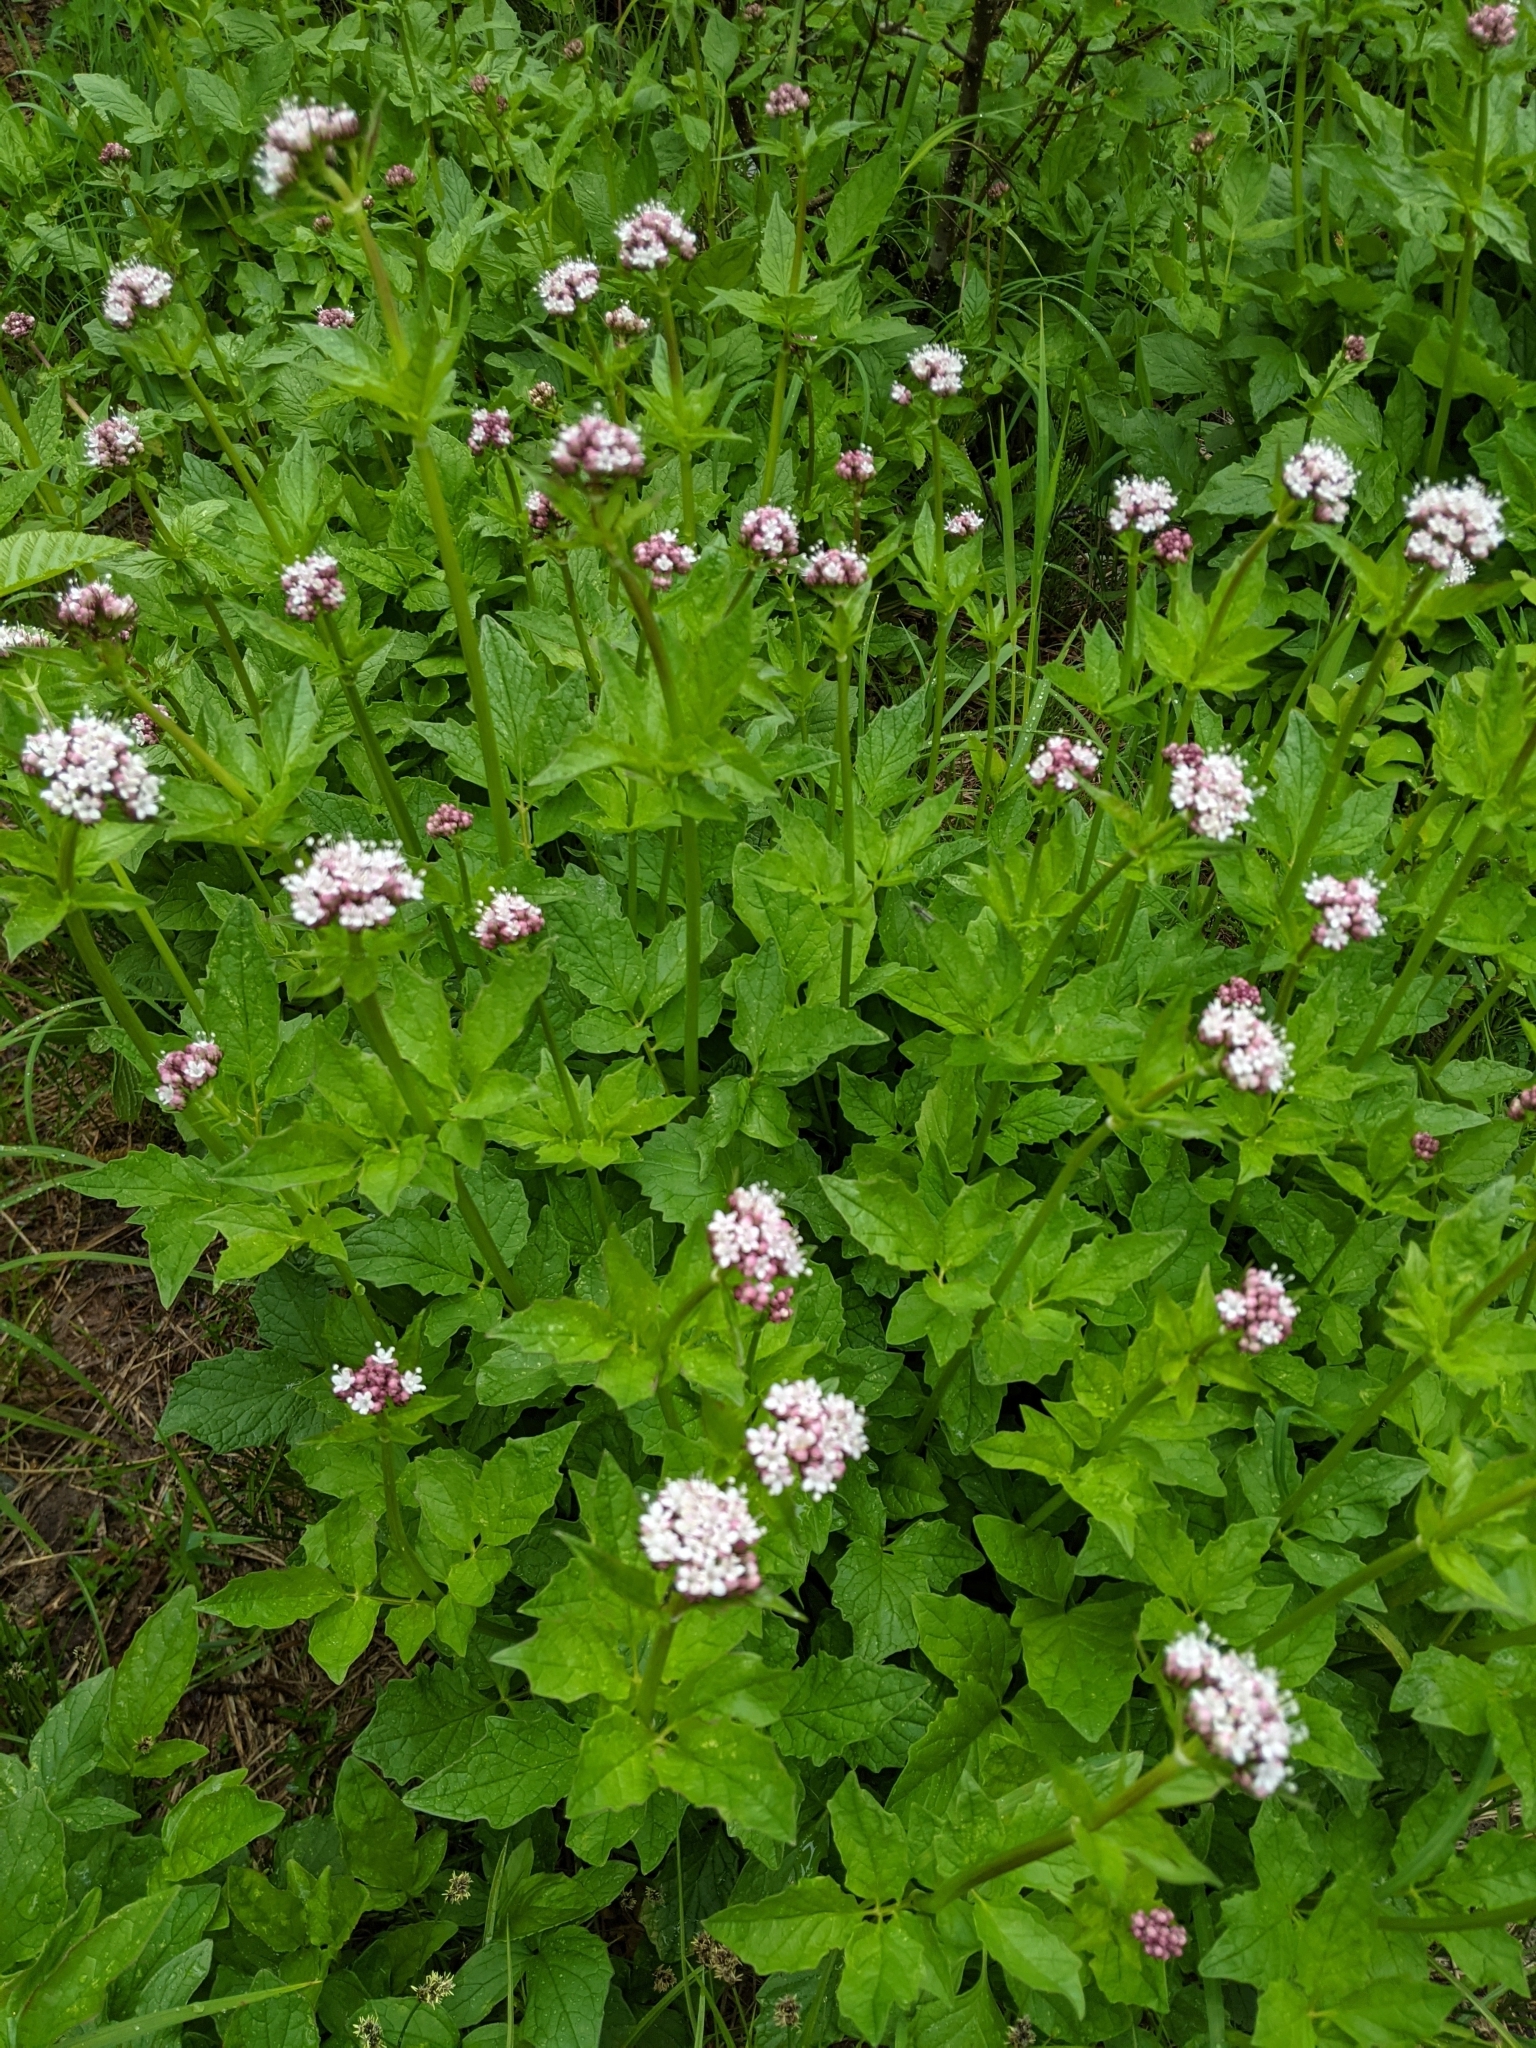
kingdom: Plantae
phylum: Tracheophyta
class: Magnoliopsida
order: Dipsacales
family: Caprifoliaceae
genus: Valeriana
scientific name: Valeriana sitchensis
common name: Pacific valerian
